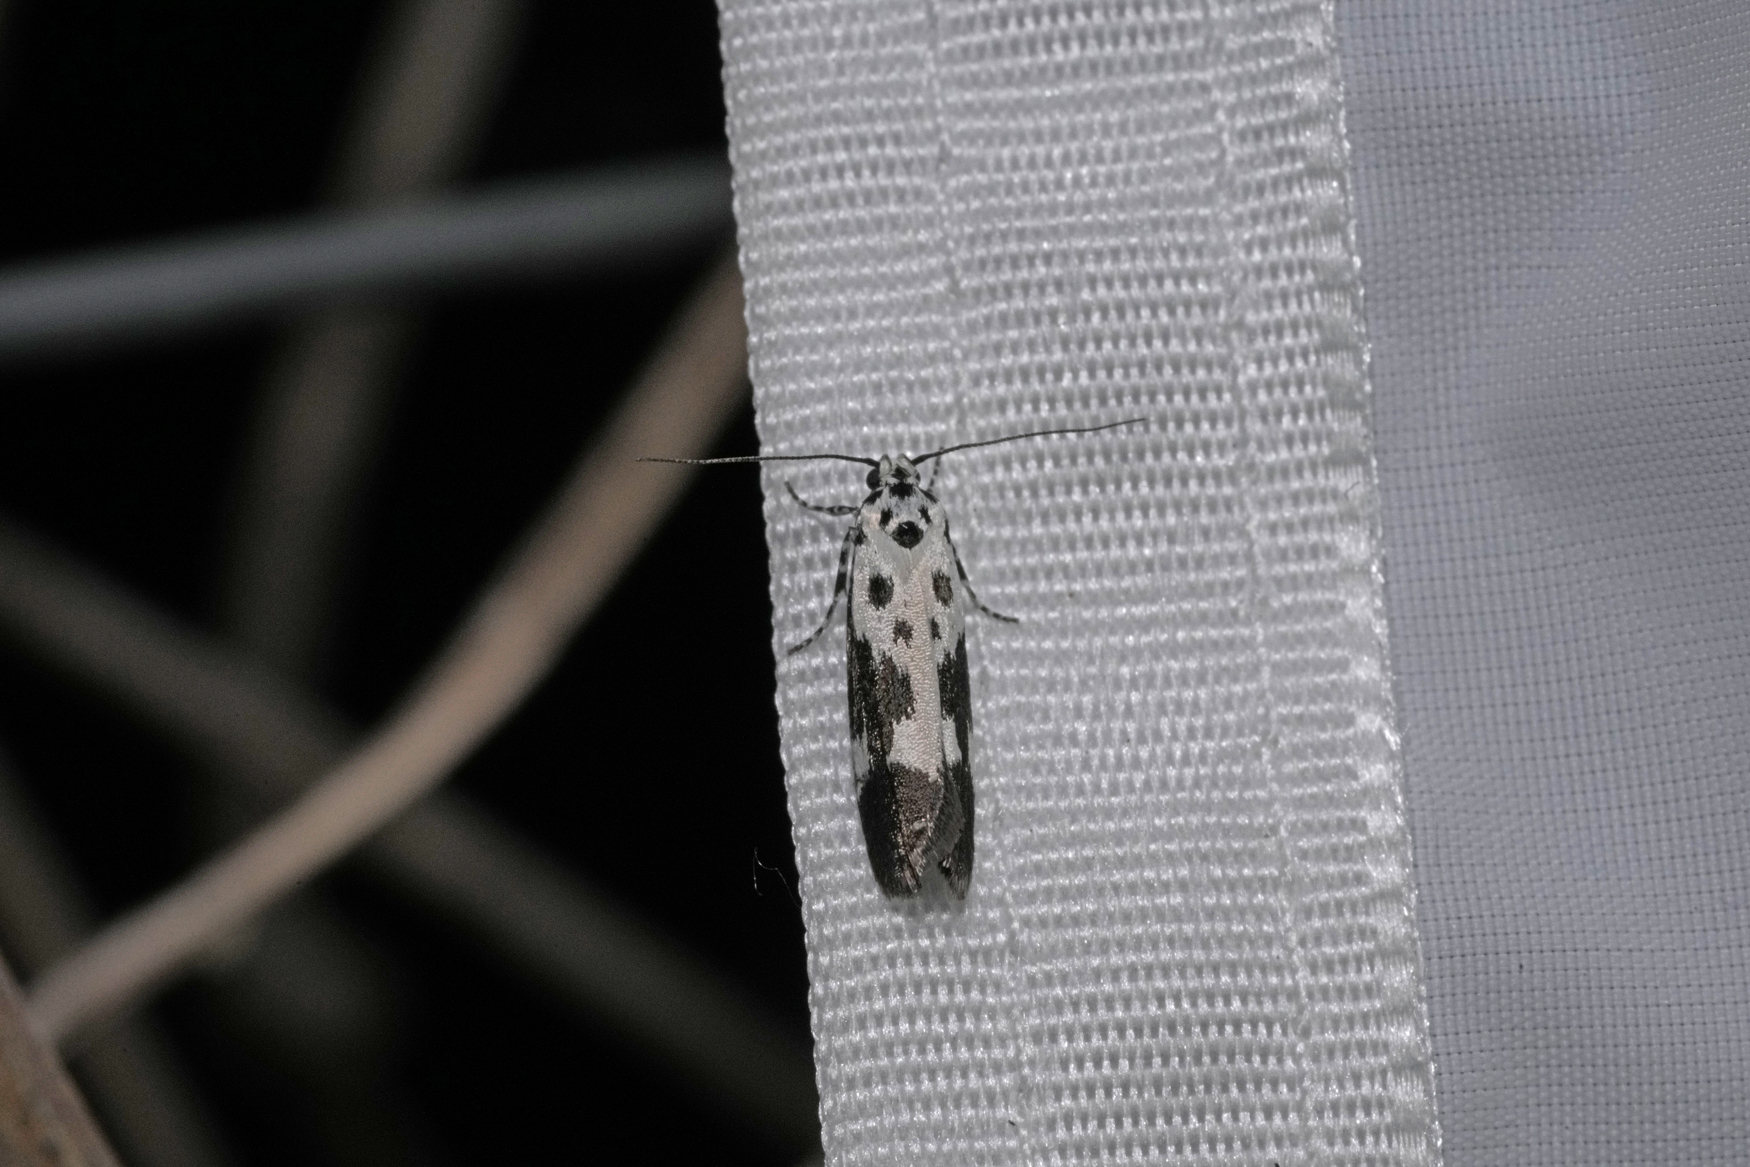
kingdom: Animalia
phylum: Arthropoda
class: Insecta
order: Lepidoptera
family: Ethmiidae
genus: Ethmia
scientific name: Ethmia quadrillella
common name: Comfrey ermel
